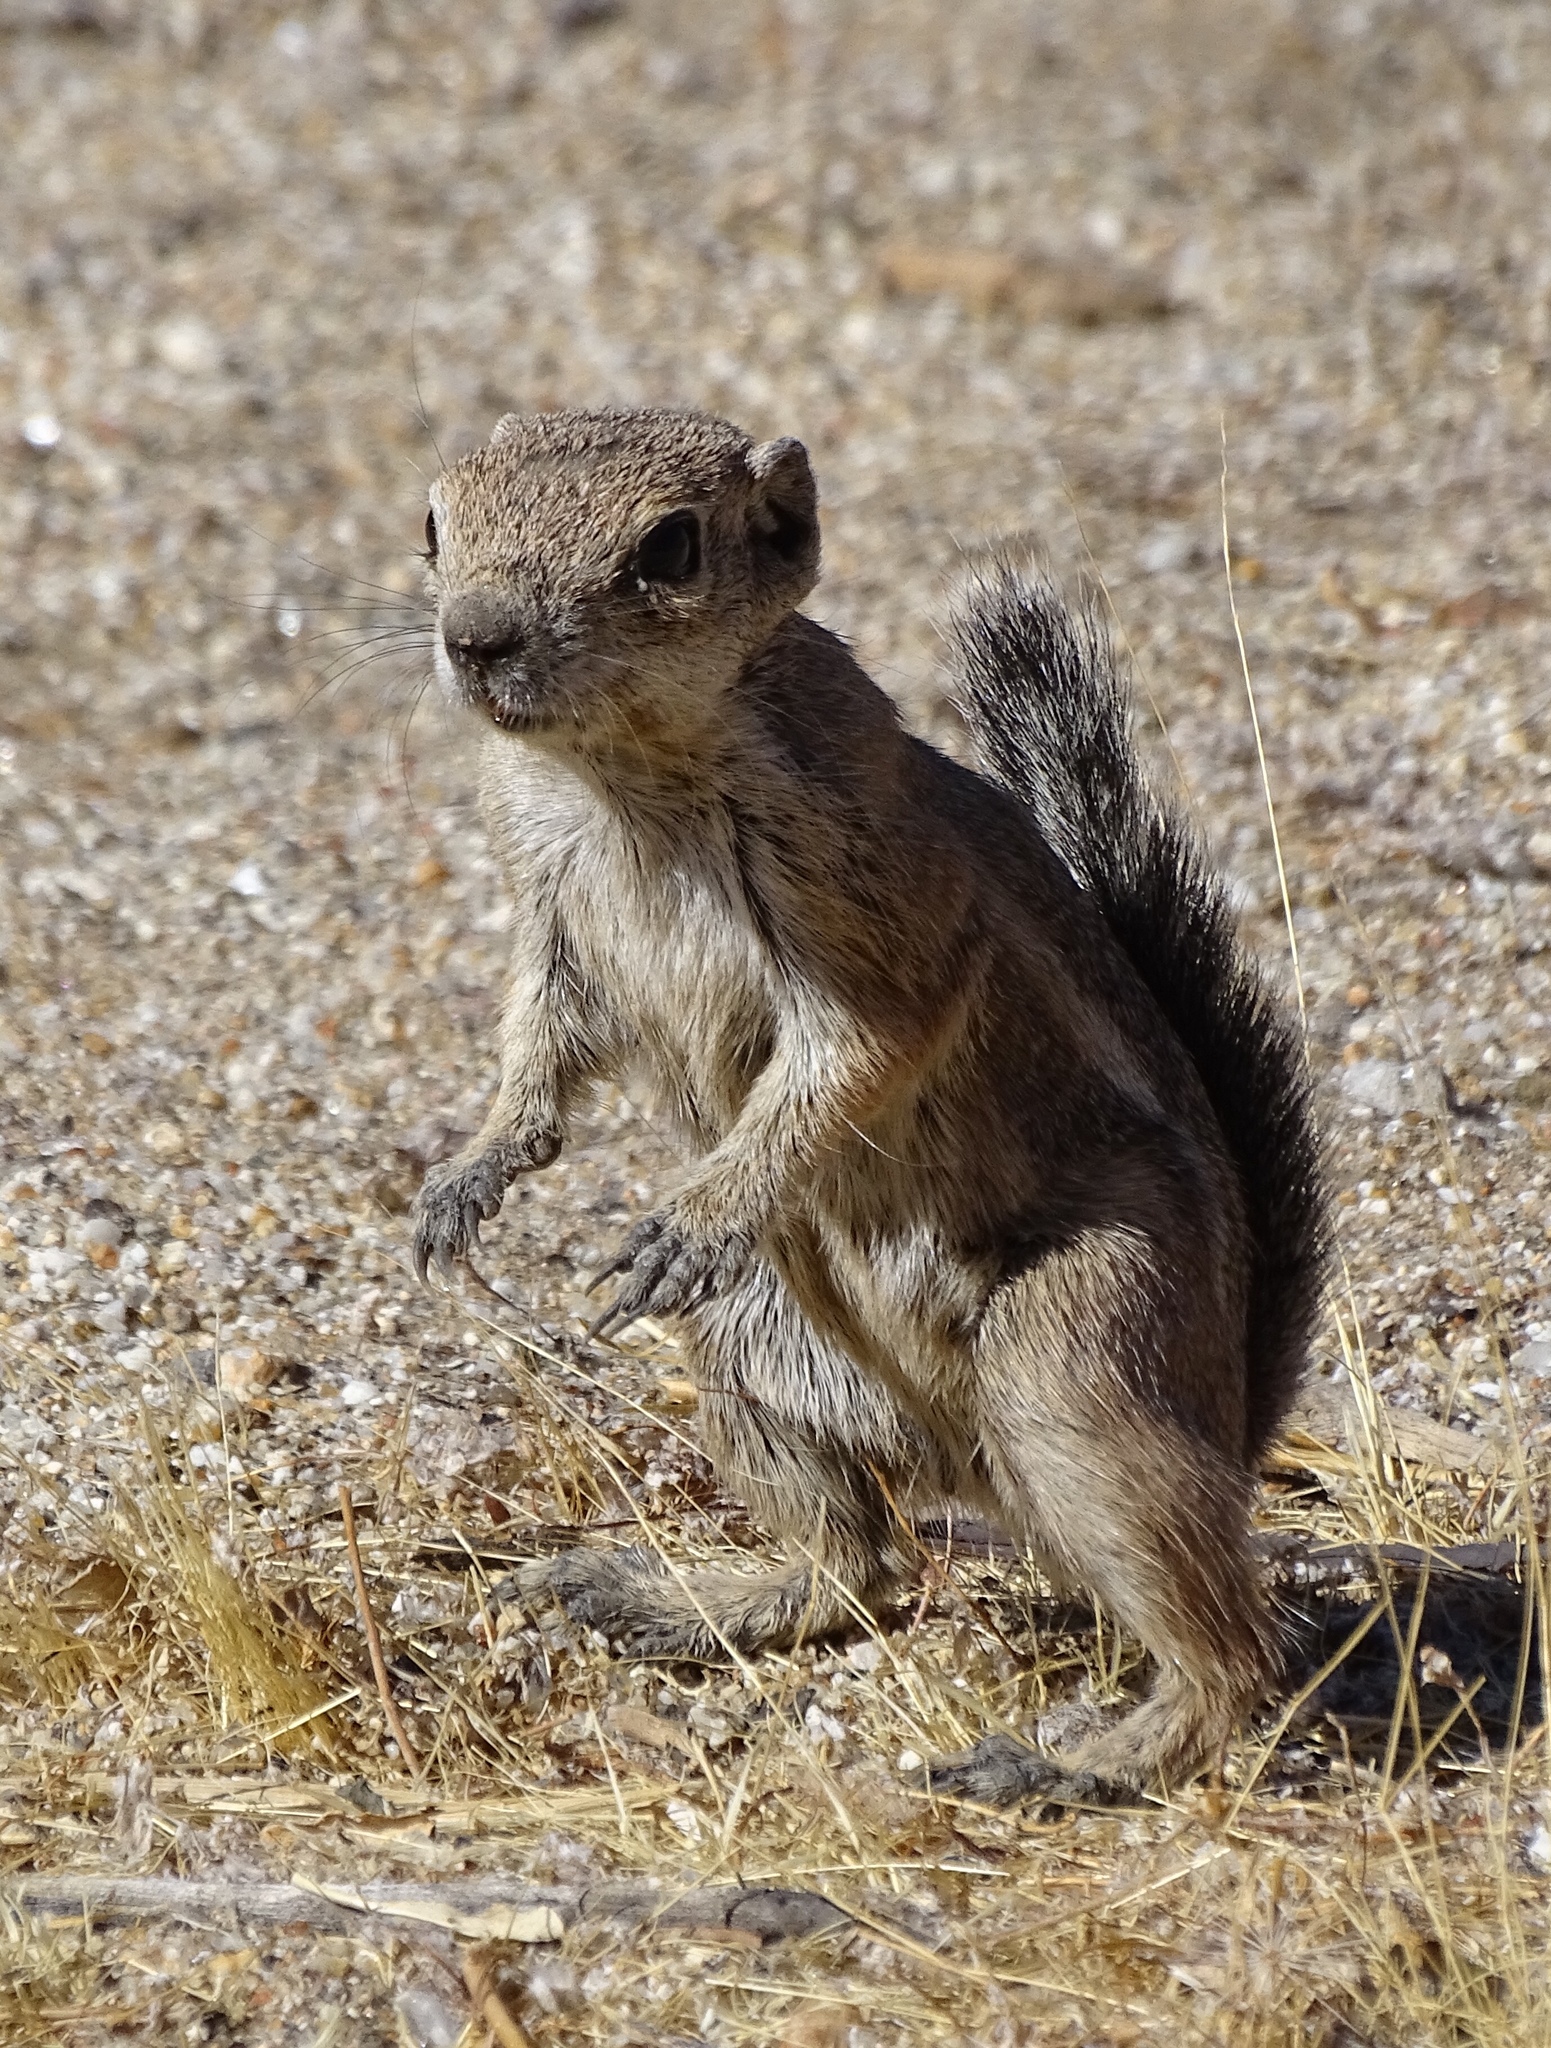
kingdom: Animalia
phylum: Chordata
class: Mammalia
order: Rodentia
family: Sciuridae
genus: Ammospermophilus
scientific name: Ammospermophilus leucurus
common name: White-tailed antelope squirrel
